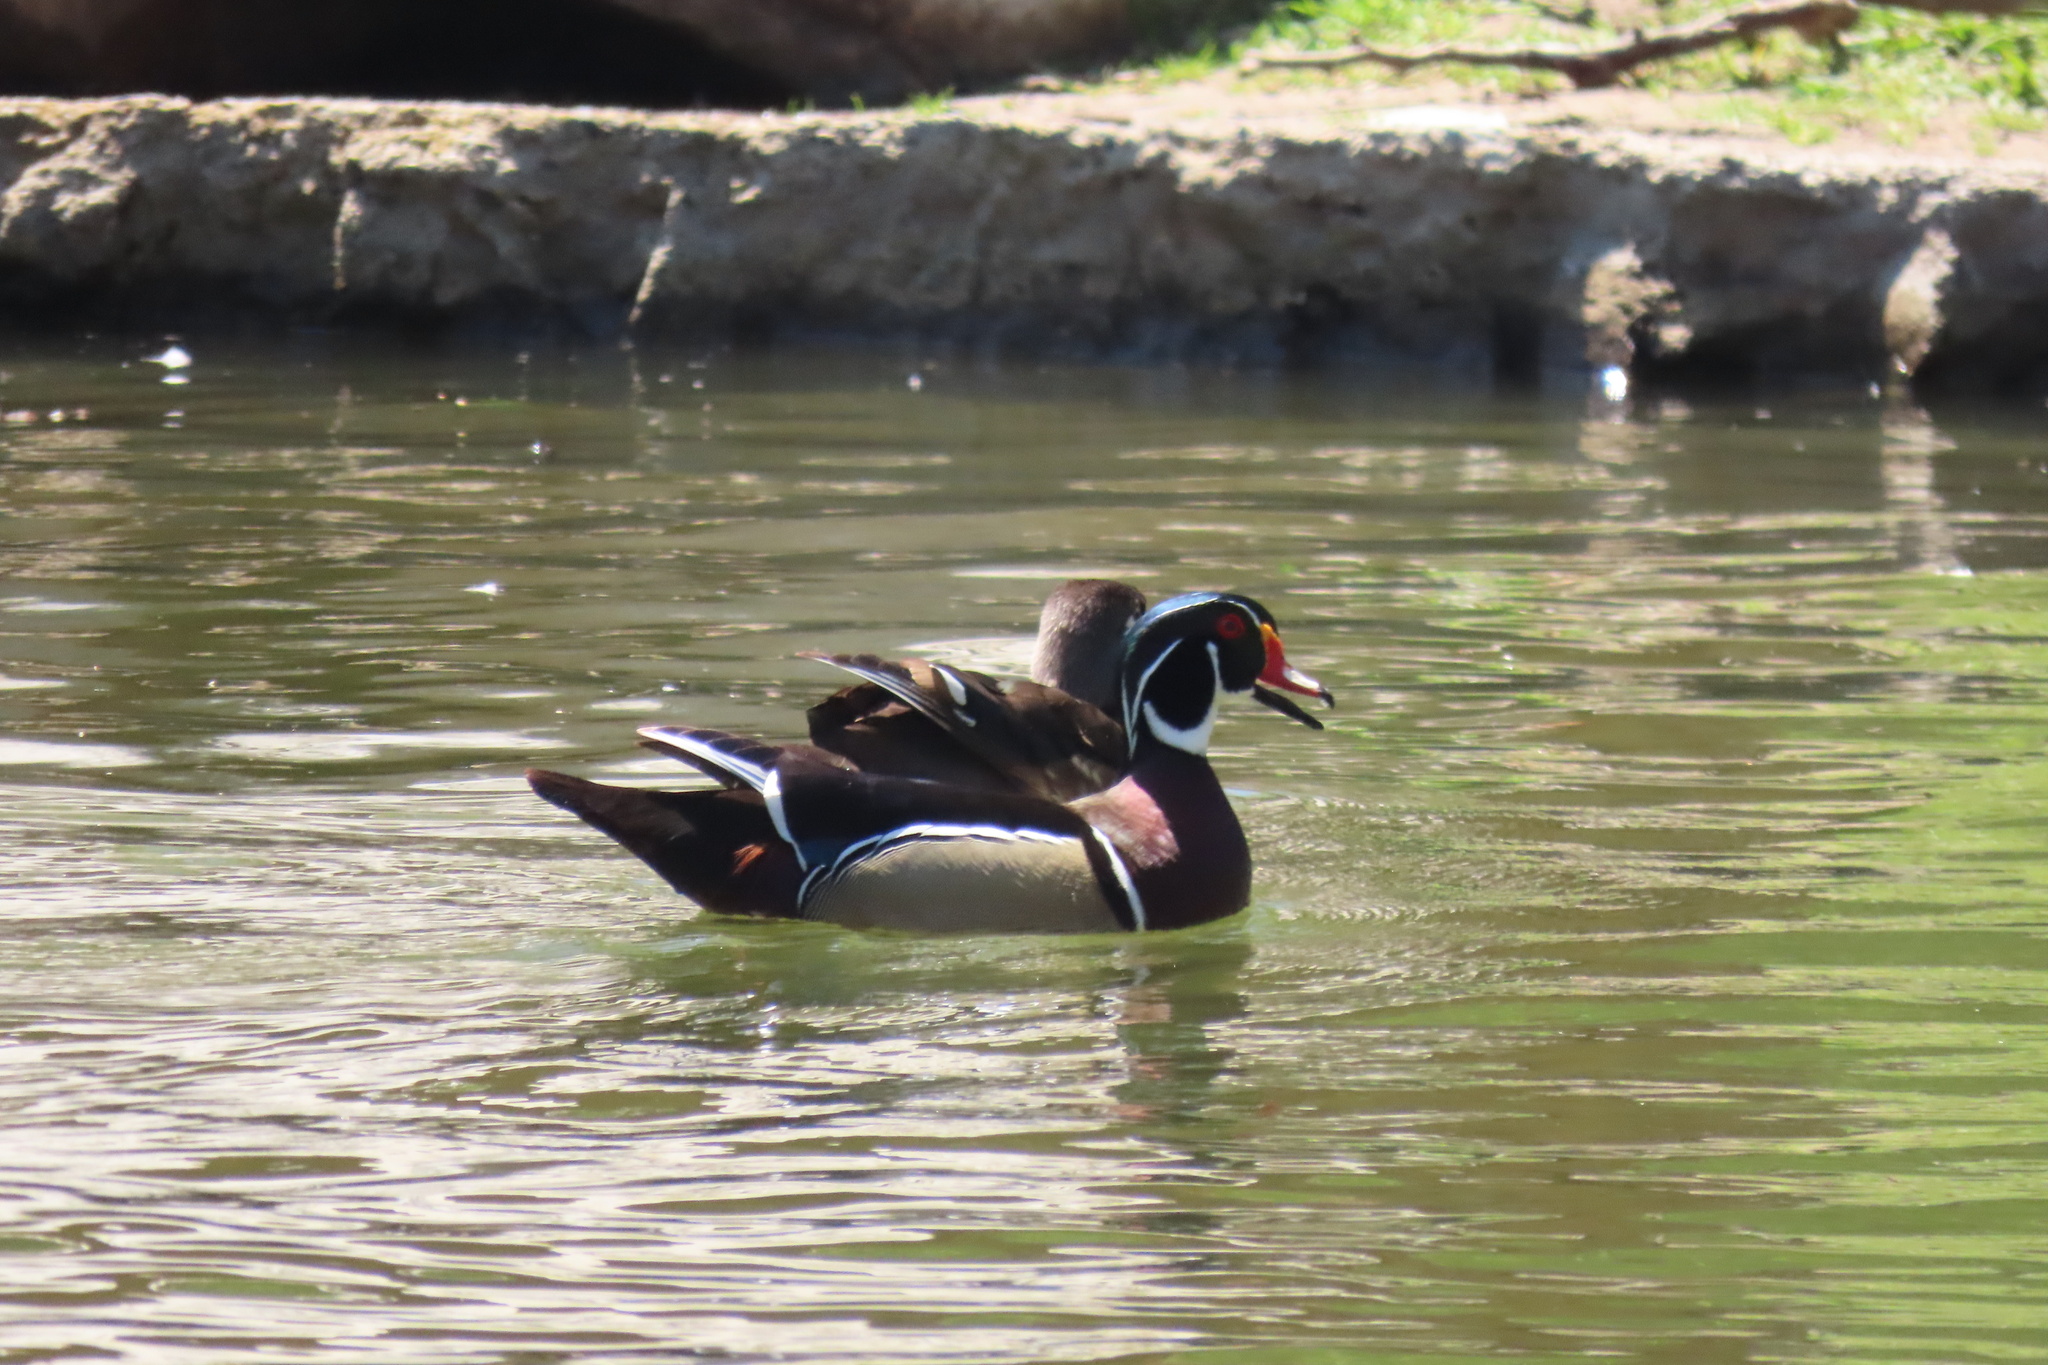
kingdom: Animalia
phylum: Chordata
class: Aves
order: Anseriformes
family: Anatidae
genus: Aix
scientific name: Aix sponsa
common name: Wood duck
